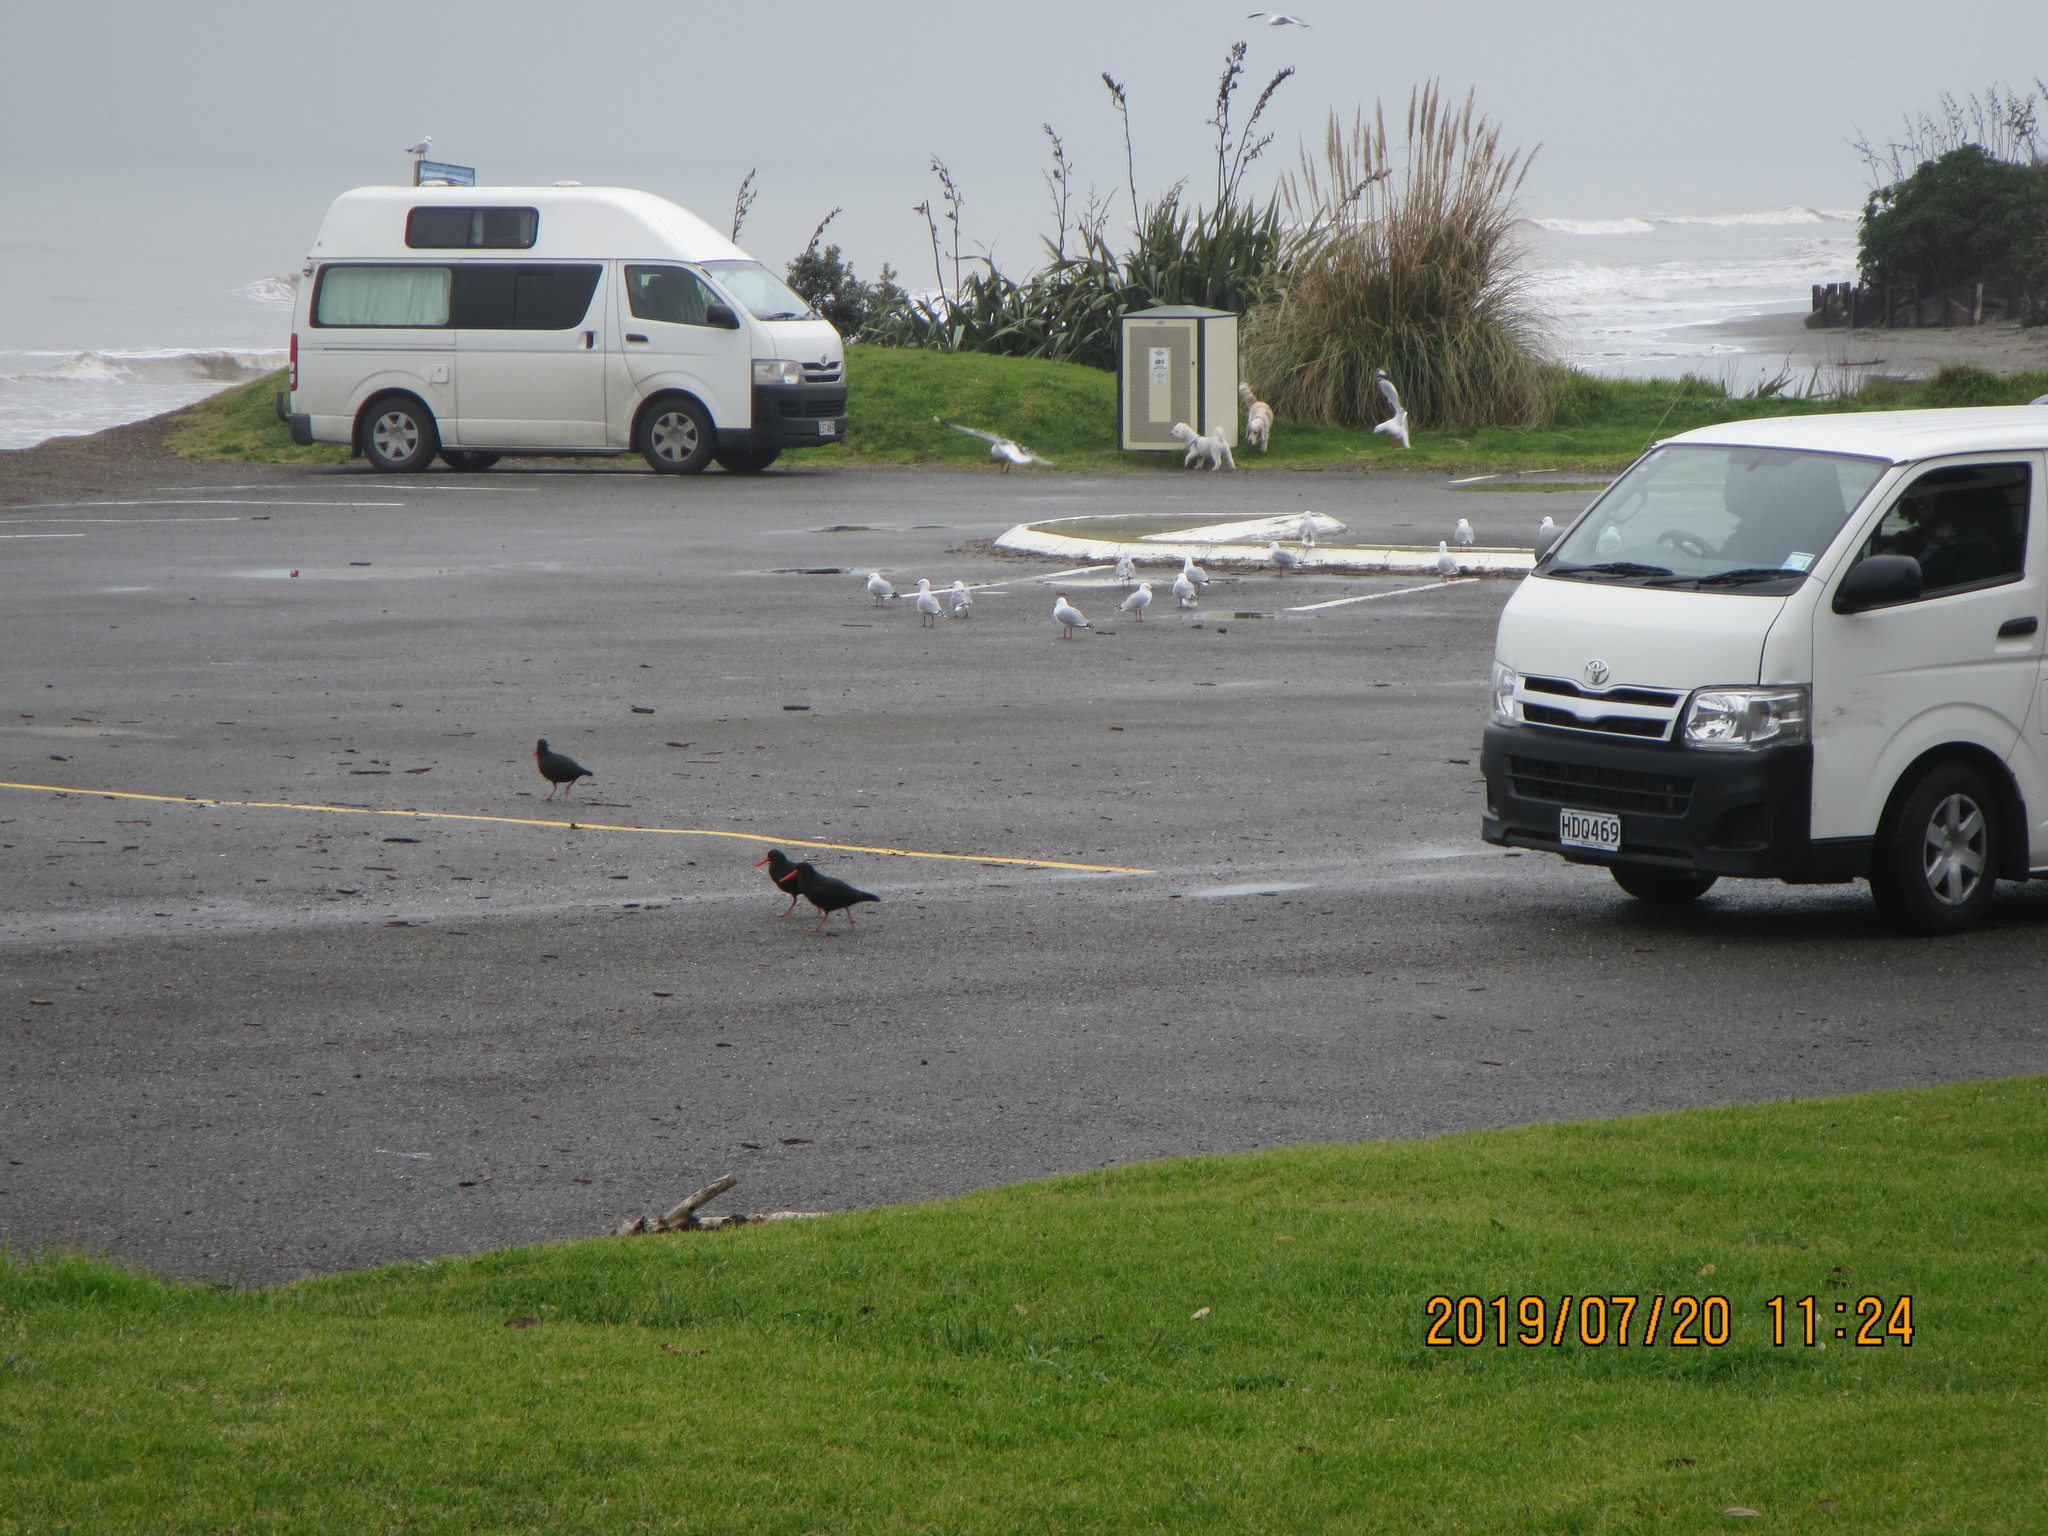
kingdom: Animalia
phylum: Chordata
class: Aves
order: Charadriiformes
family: Haematopodidae
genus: Haematopus
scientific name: Haematopus unicolor
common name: Variable oystercatcher
